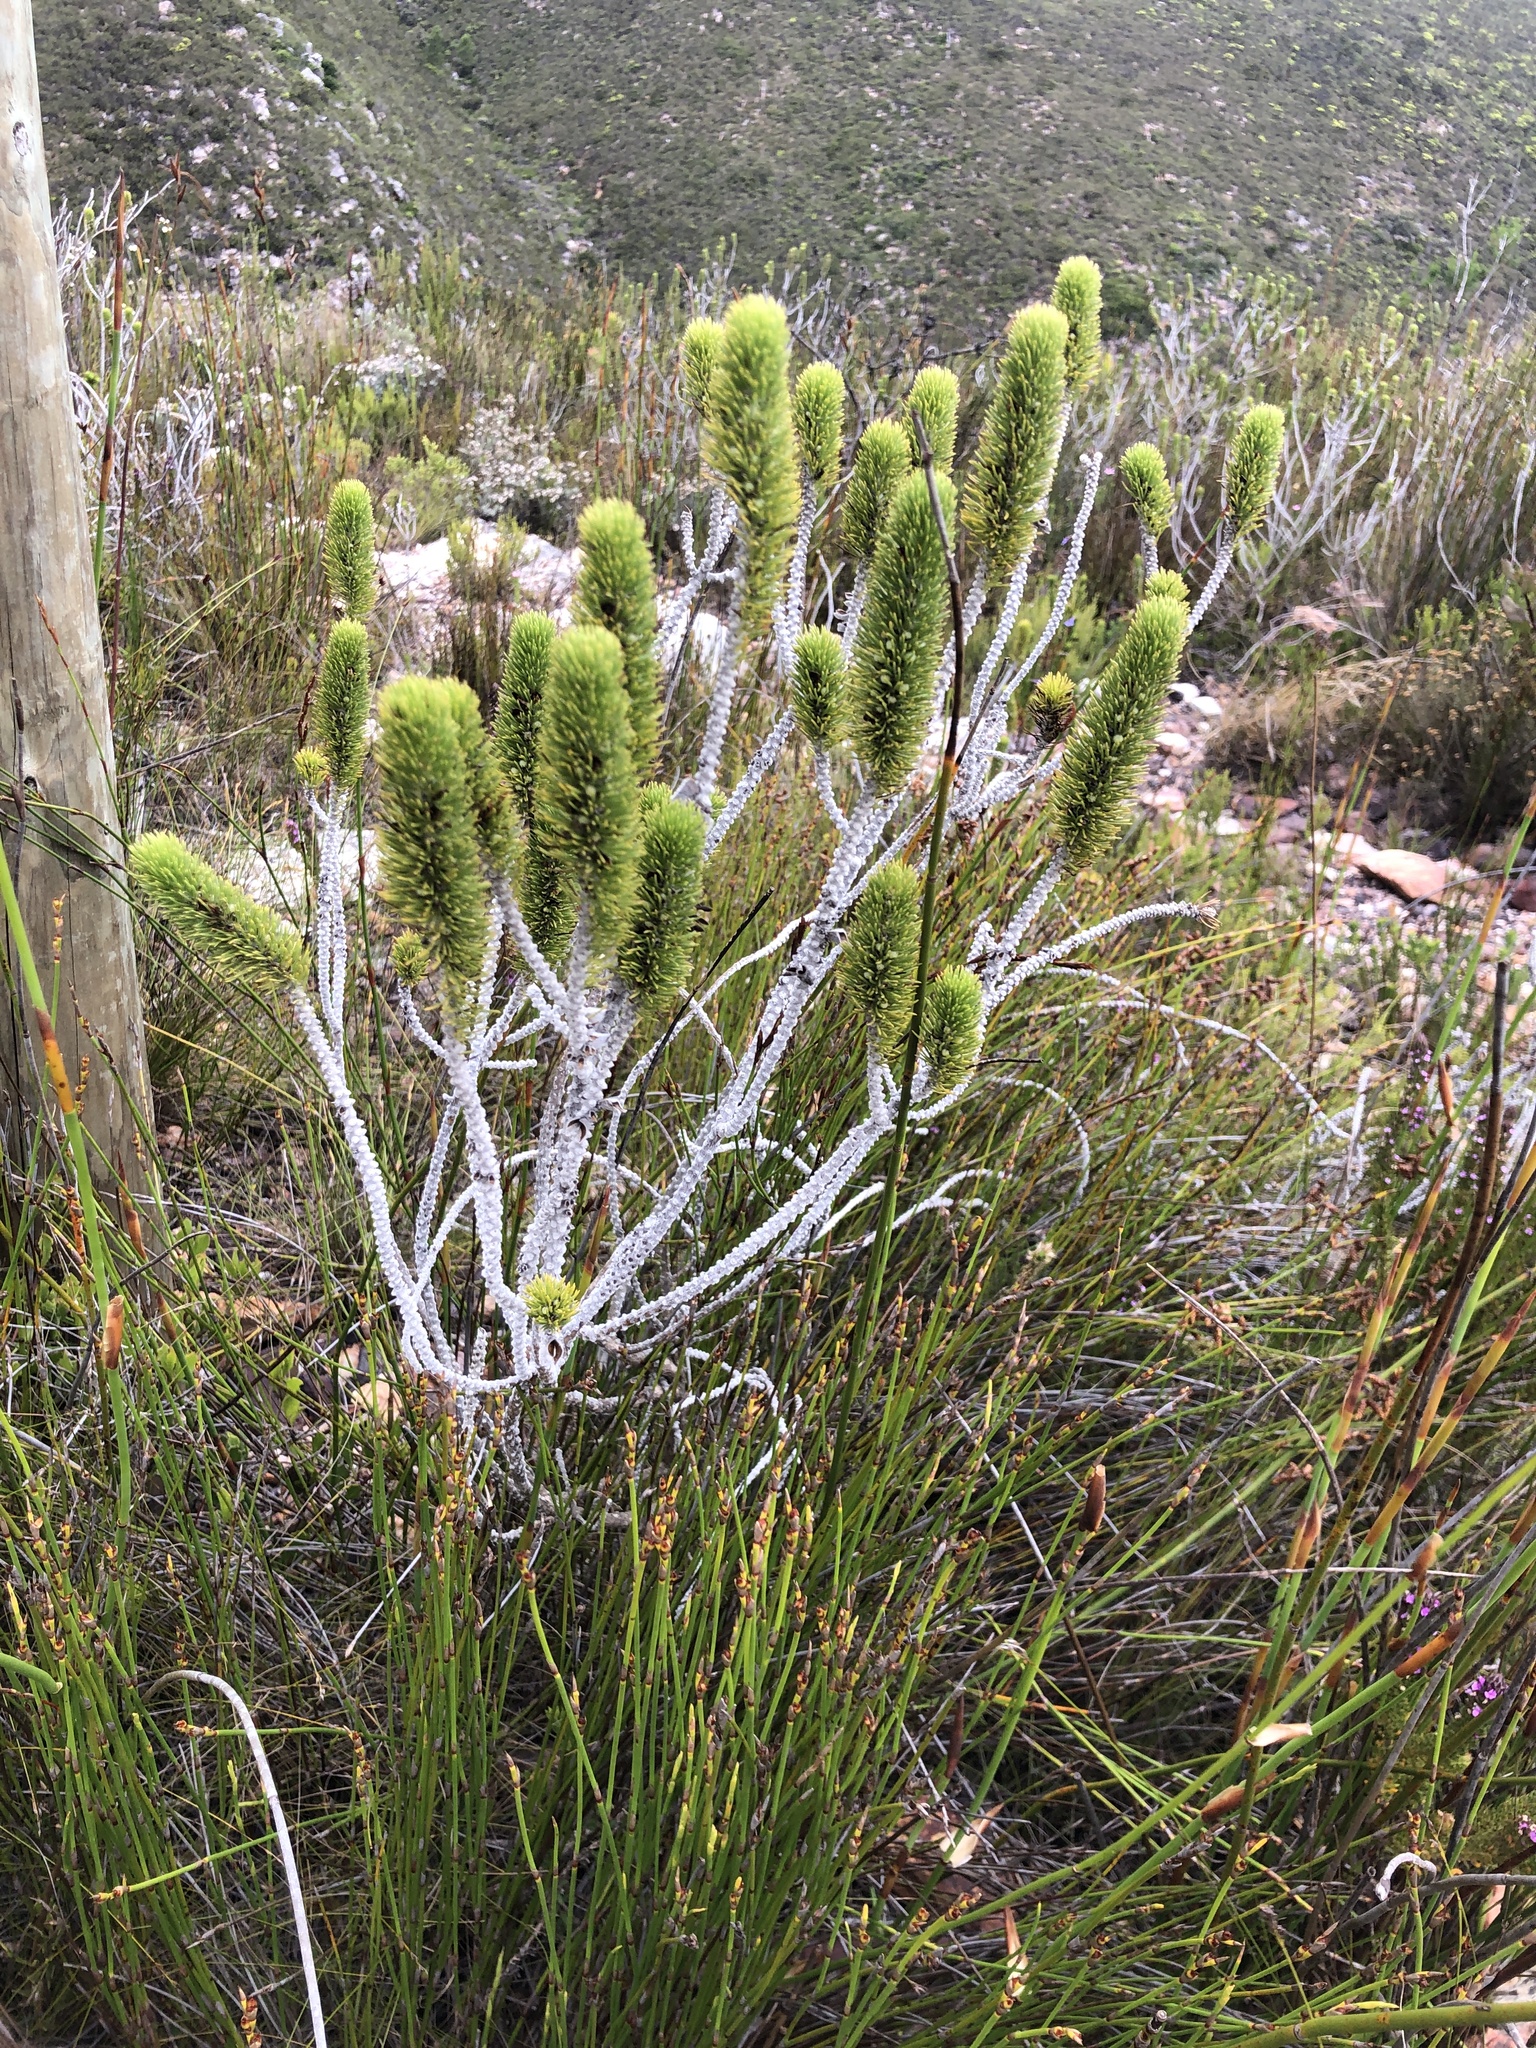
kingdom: Plantae
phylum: Tracheophyta
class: Magnoliopsida
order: Fabales
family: Fabaceae
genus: Aspalathus
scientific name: Aspalathus incurvifolia
